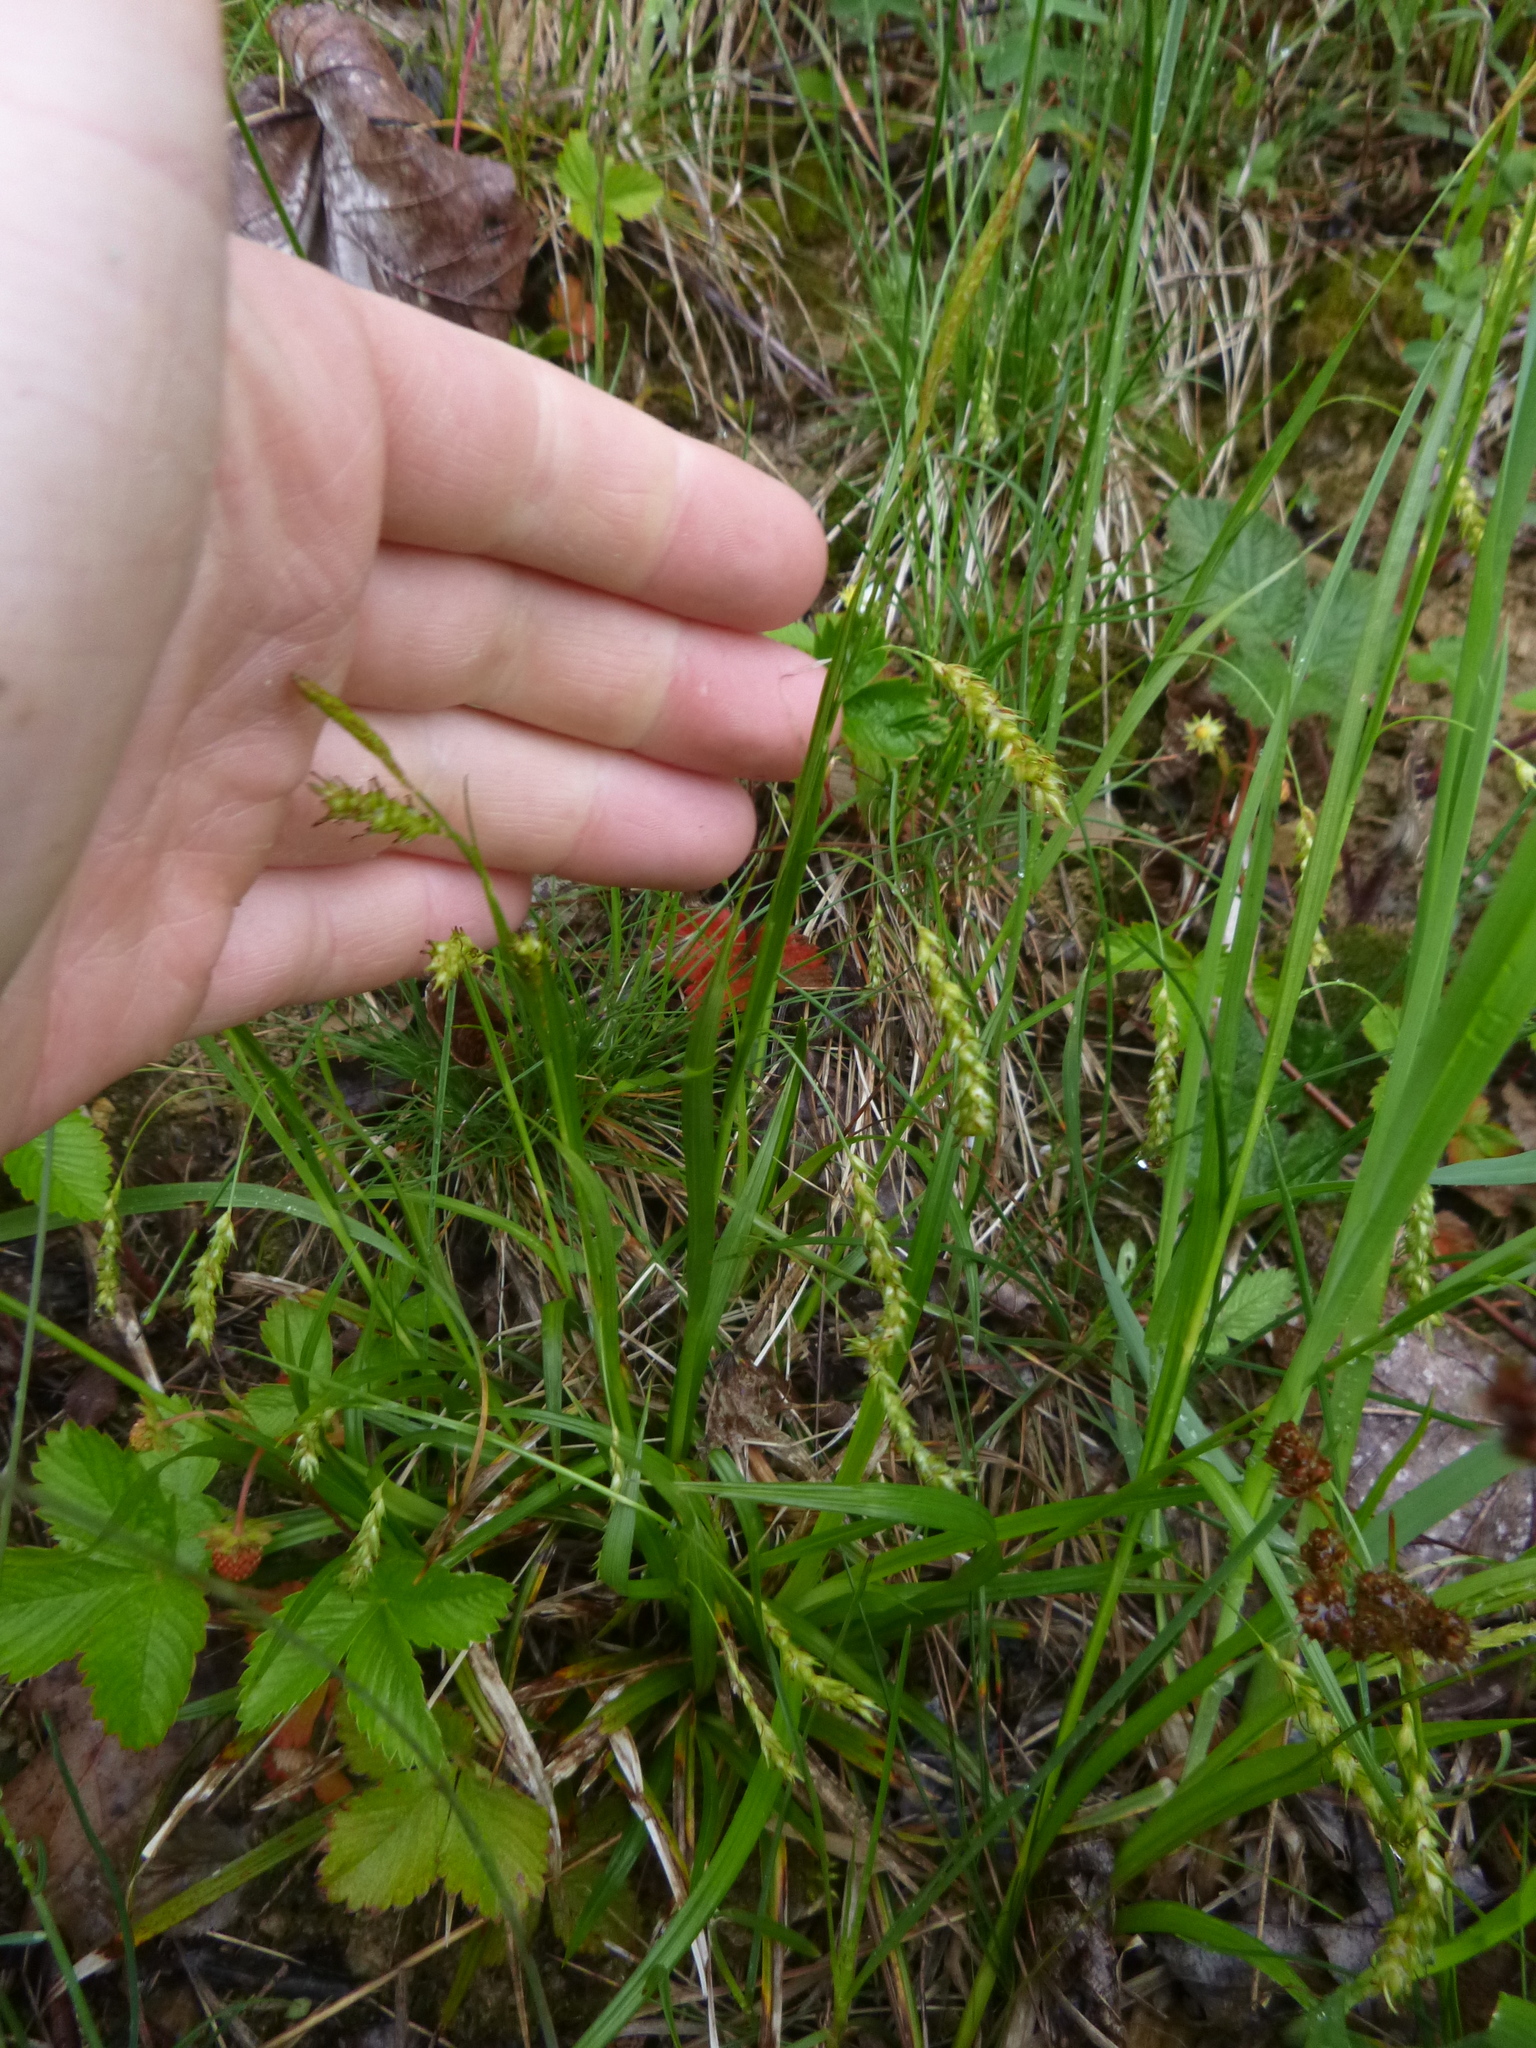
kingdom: Plantae
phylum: Tracheophyta
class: Liliopsida
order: Poales
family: Cyperaceae
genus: Carex
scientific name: Carex sylvatica
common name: Wood-sedge
